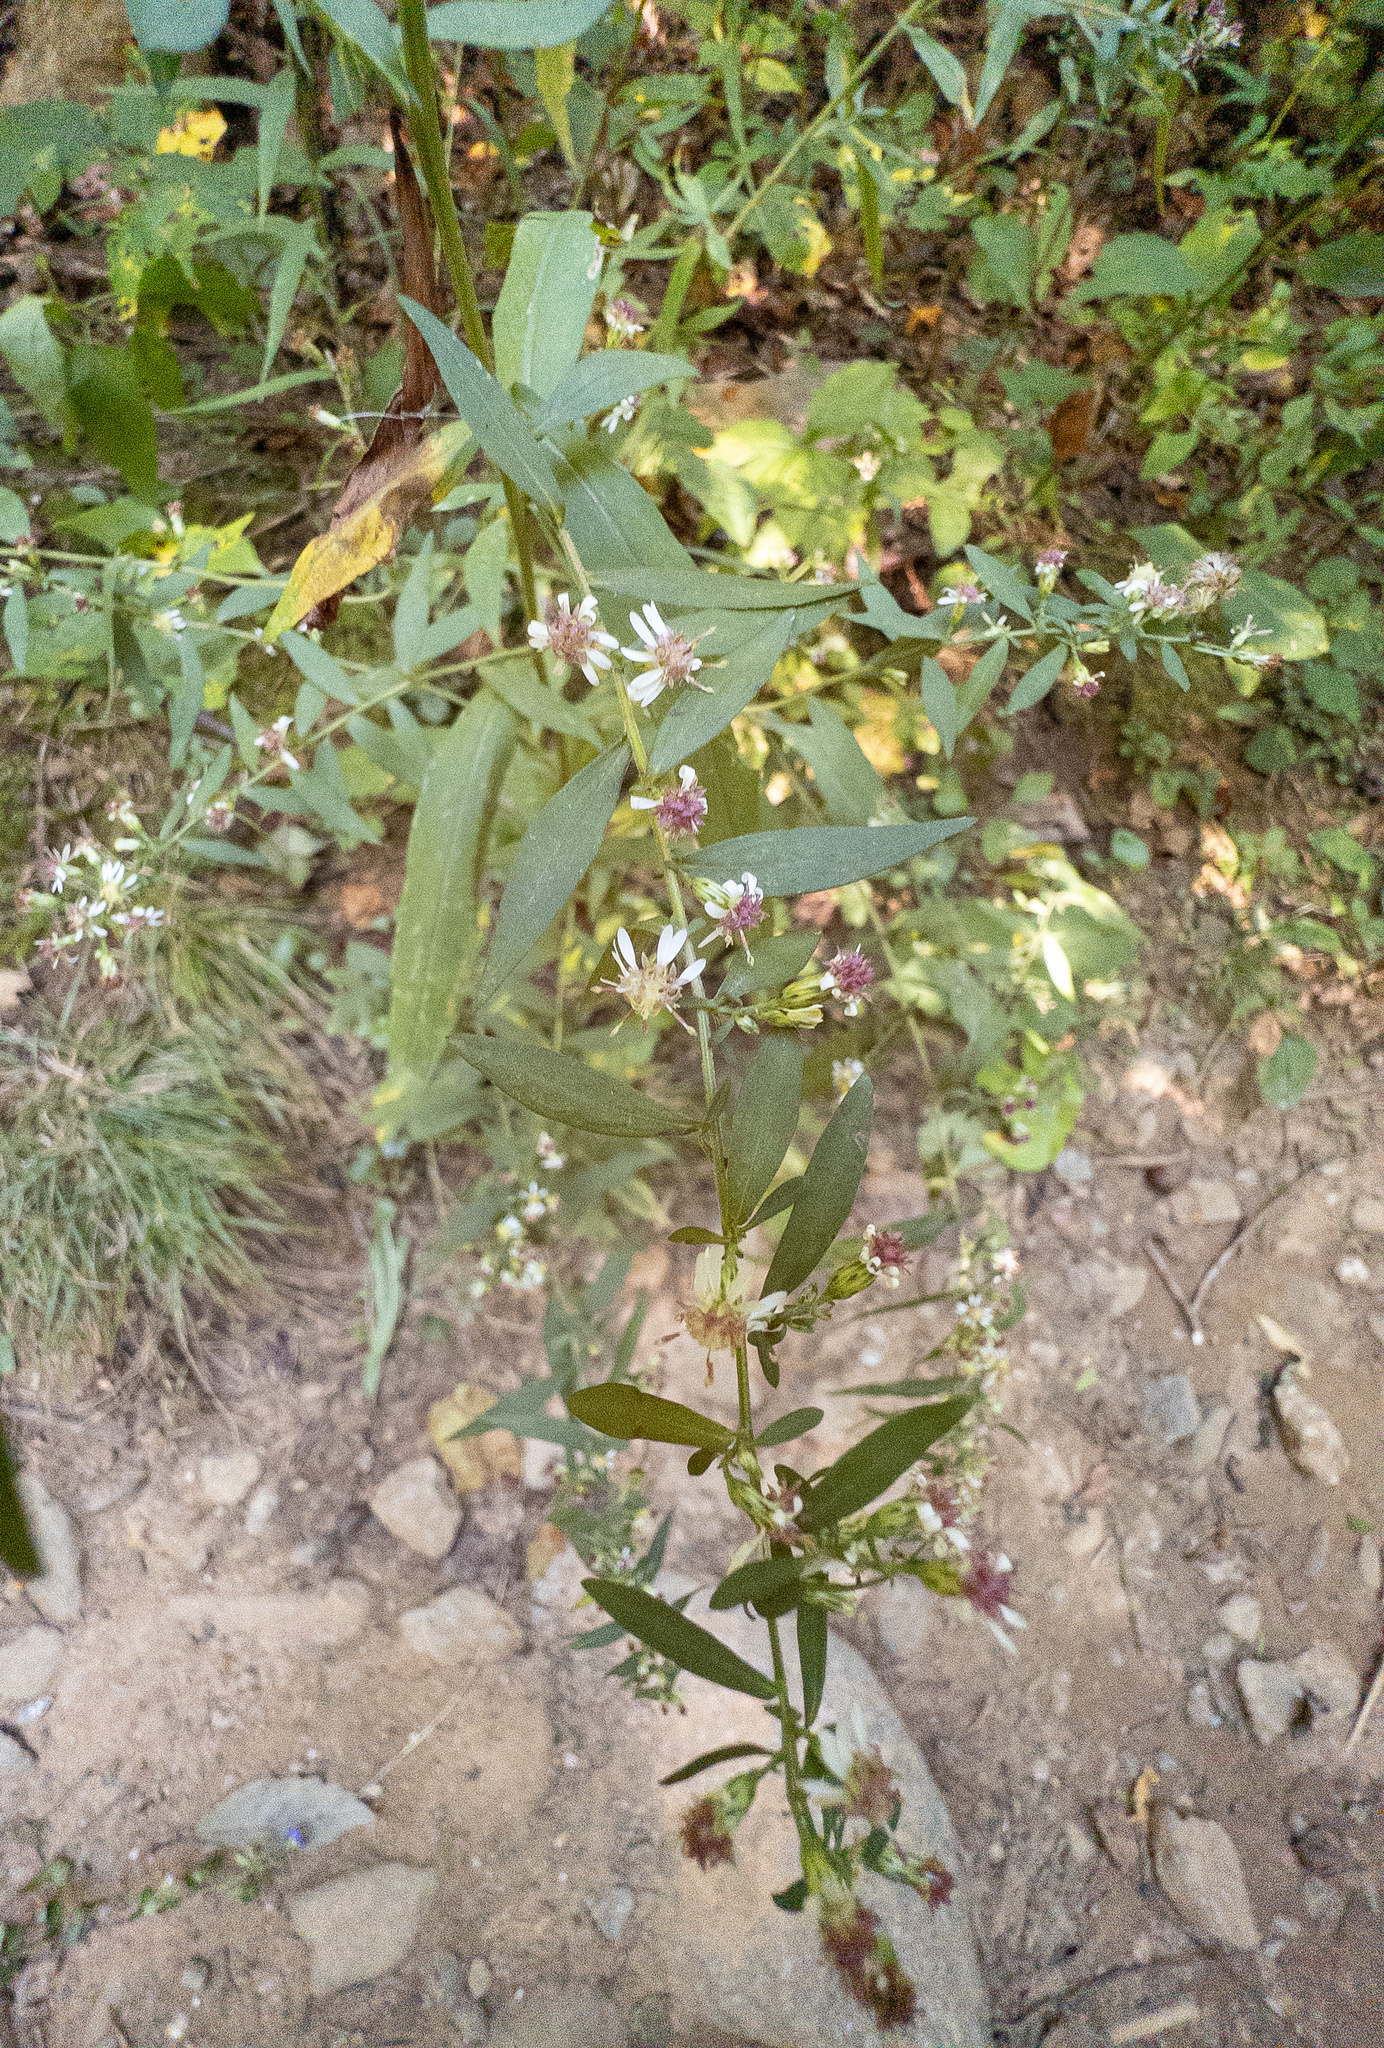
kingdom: Plantae
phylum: Tracheophyta
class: Magnoliopsida
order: Asterales
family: Asteraceae
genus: Symphyotrichum
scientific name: Symphyotrichum lateriflorum
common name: Calico aster
